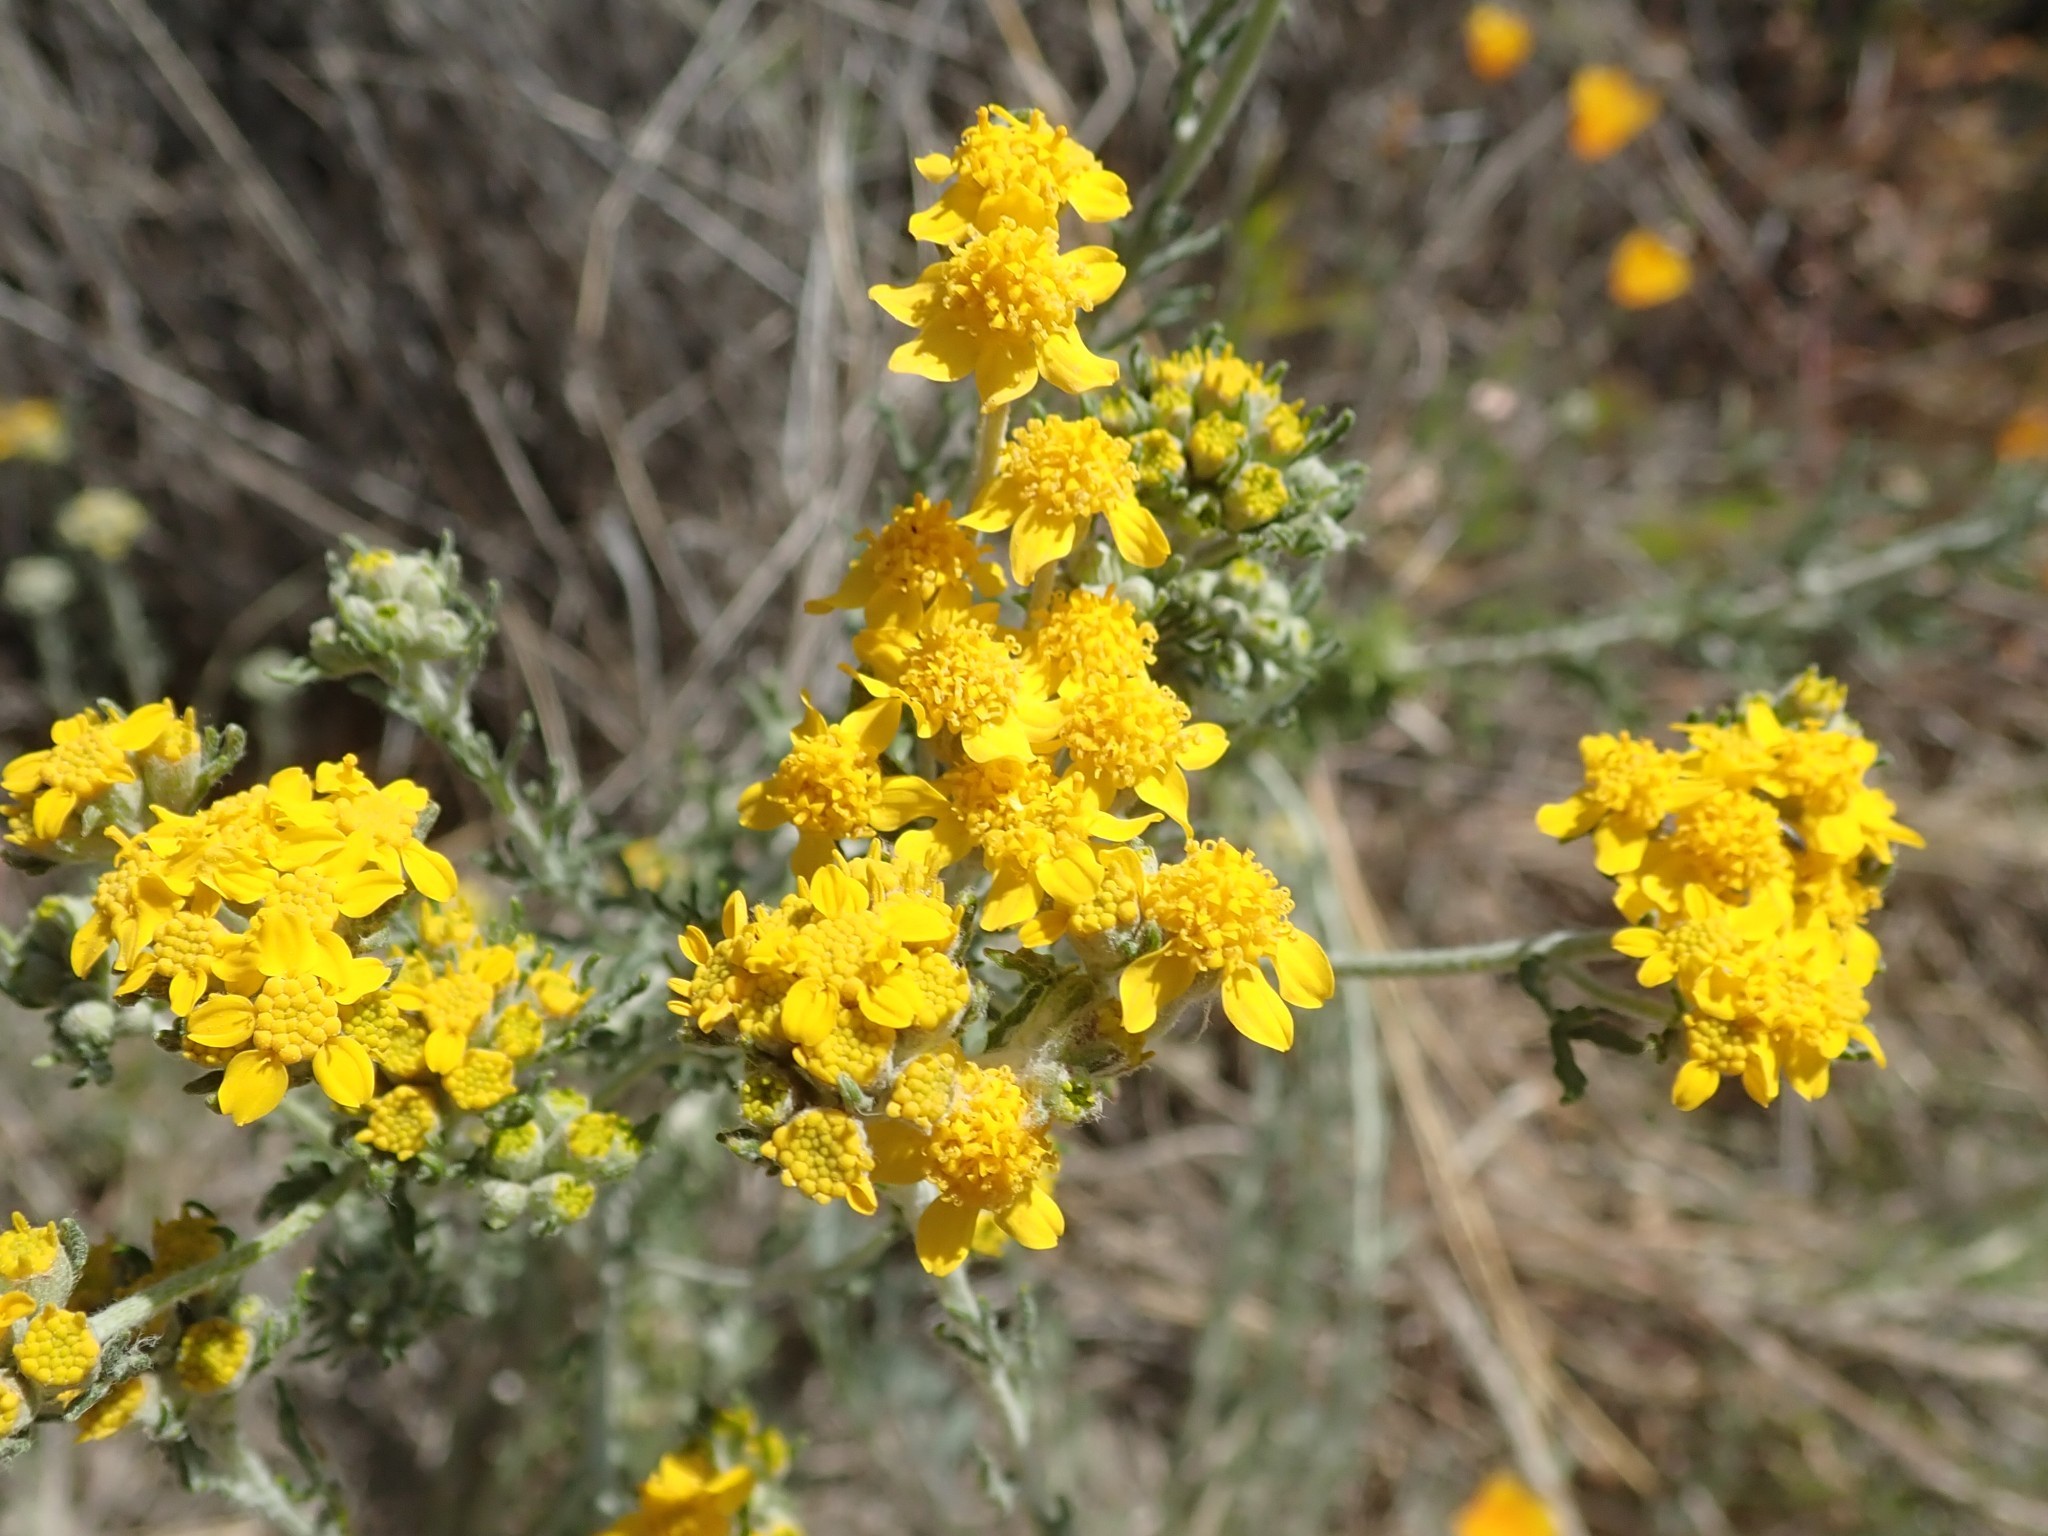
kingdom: Plantae
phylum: Tracheophyta
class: Magnoliopsida
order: Asterales
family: Asteraceae
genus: Eriophyllum
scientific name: Eriophyllum confertiflorum
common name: Golden-yarrow
